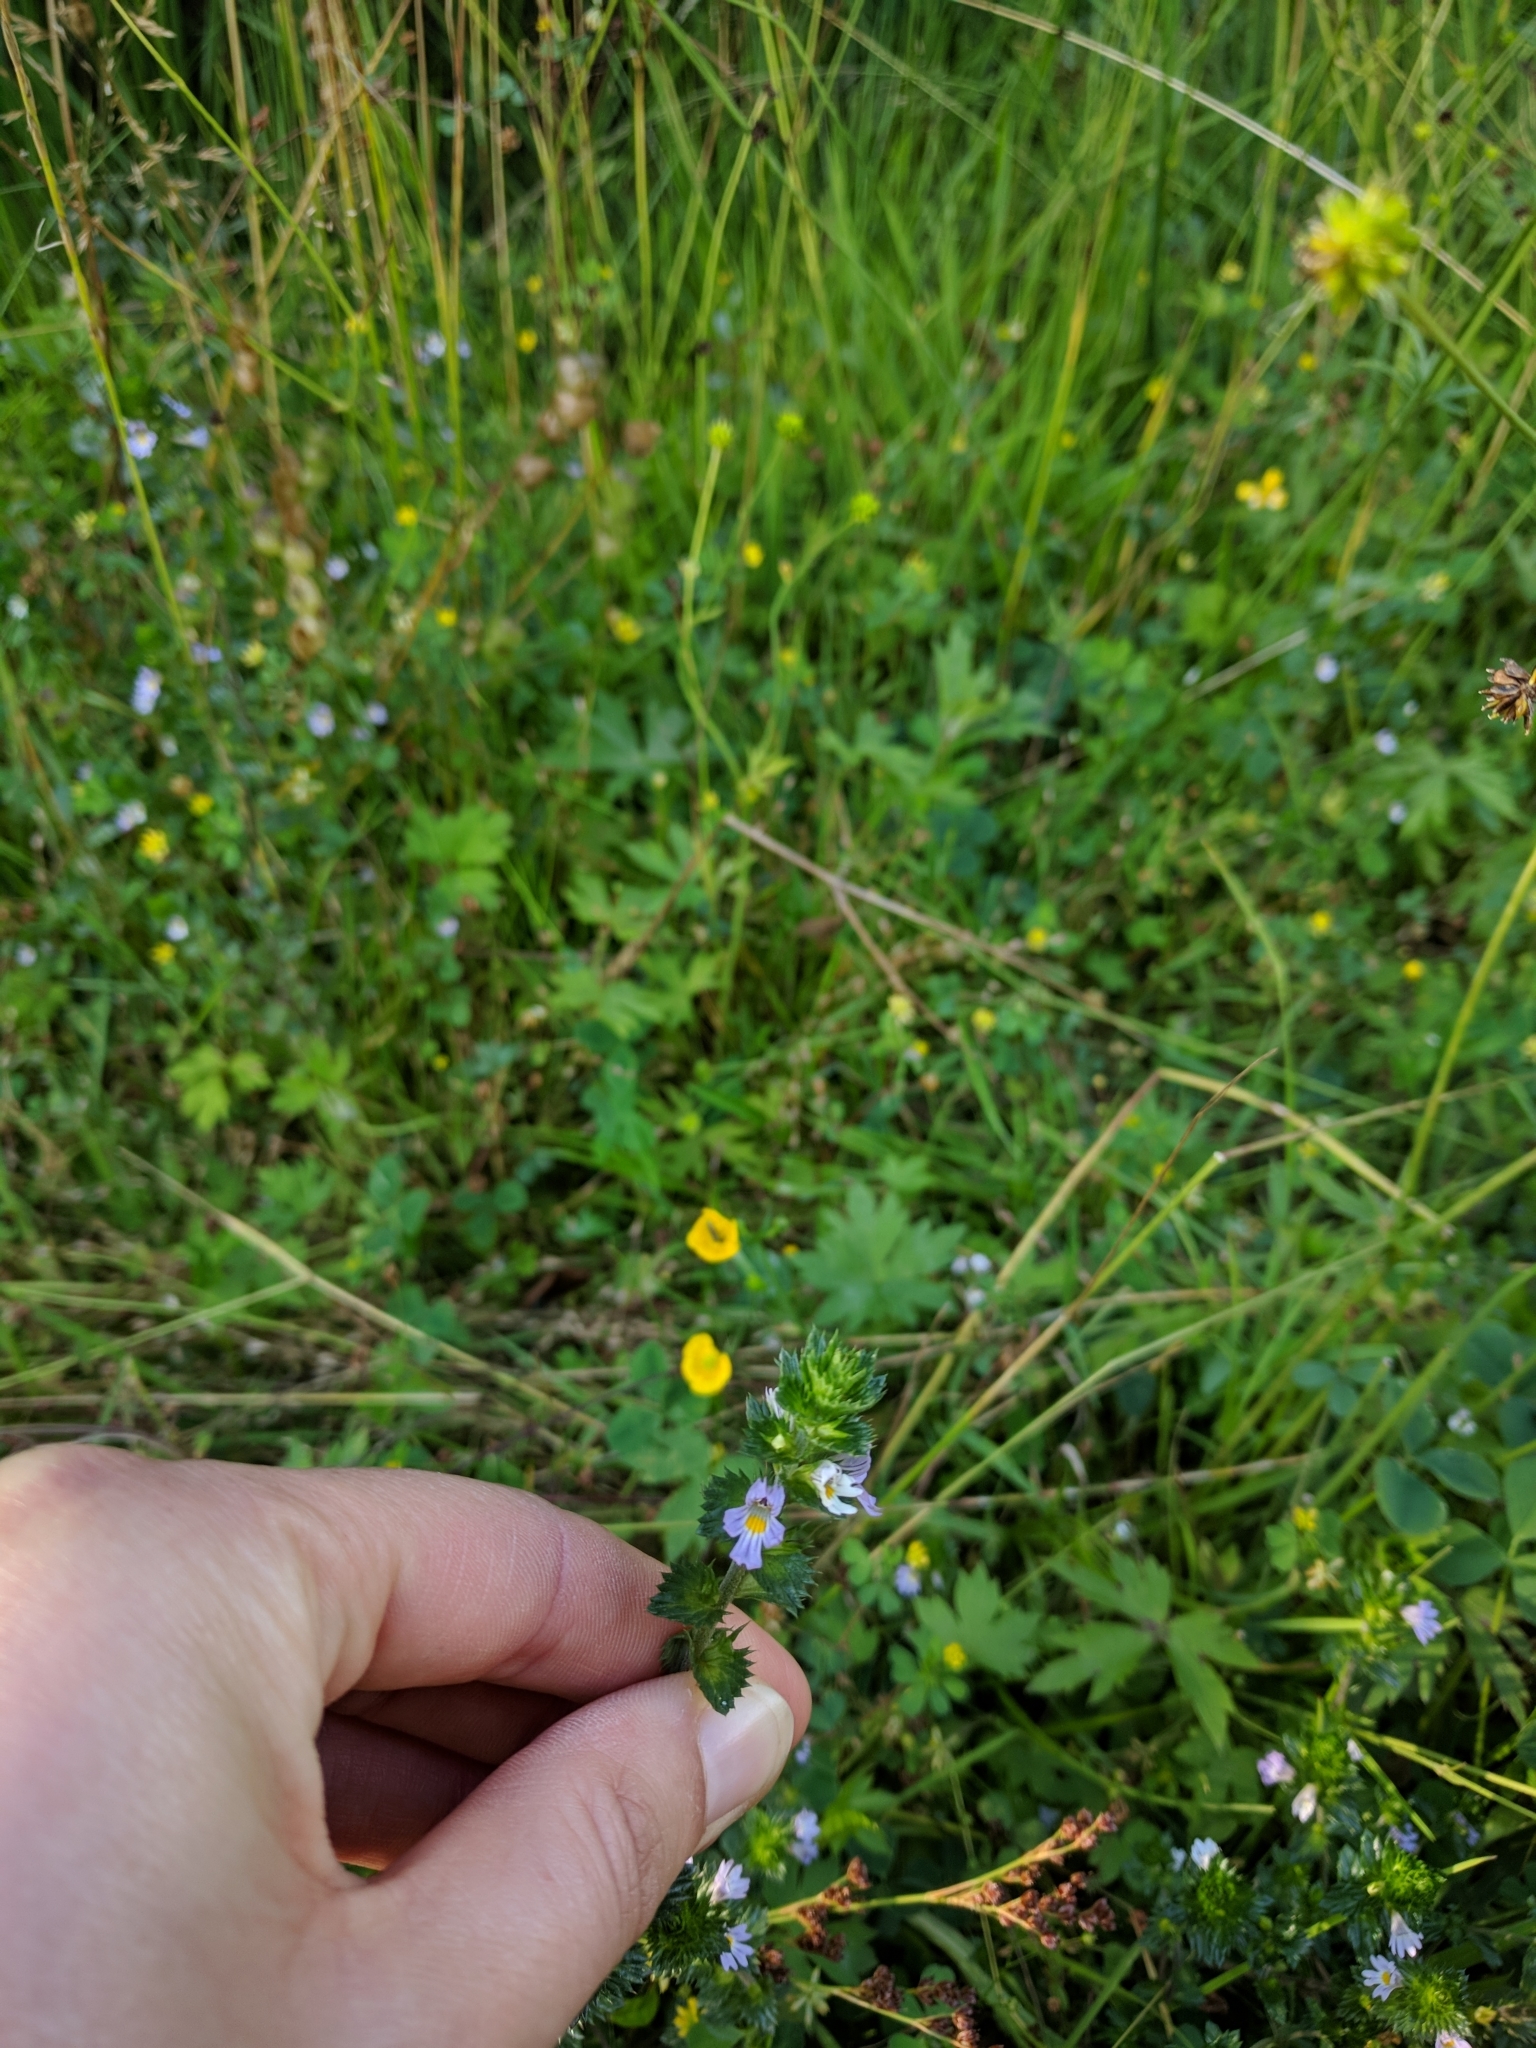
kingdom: Plantae
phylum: Tracheophyta
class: Magnoliopsida
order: Lamiales
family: Orobanchaceae
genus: Euphrasia
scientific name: Euphrasia nemorosa
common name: Common eyebright
